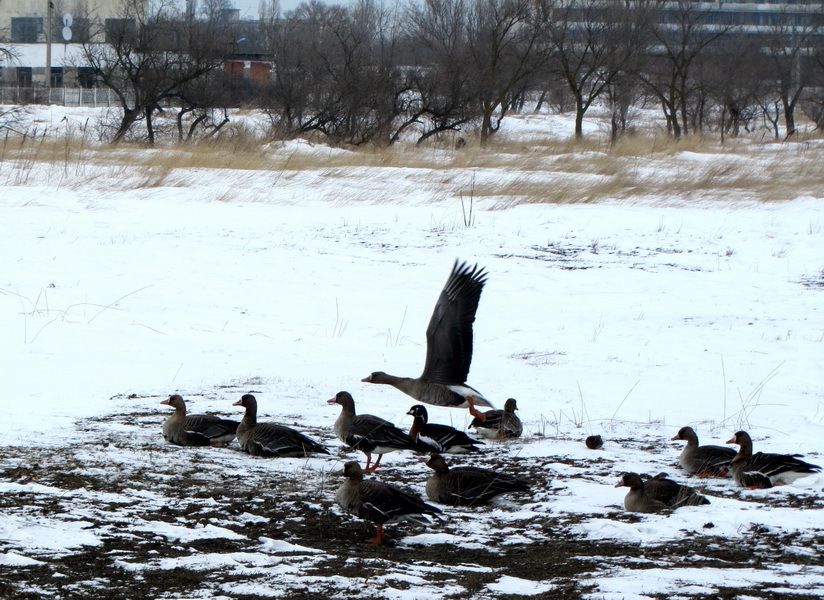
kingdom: Animalia
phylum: Chordata
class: Aves
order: Anseriformes
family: Anatidae
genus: Anser
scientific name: Anser albifrons
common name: Greater white-fronted goose
